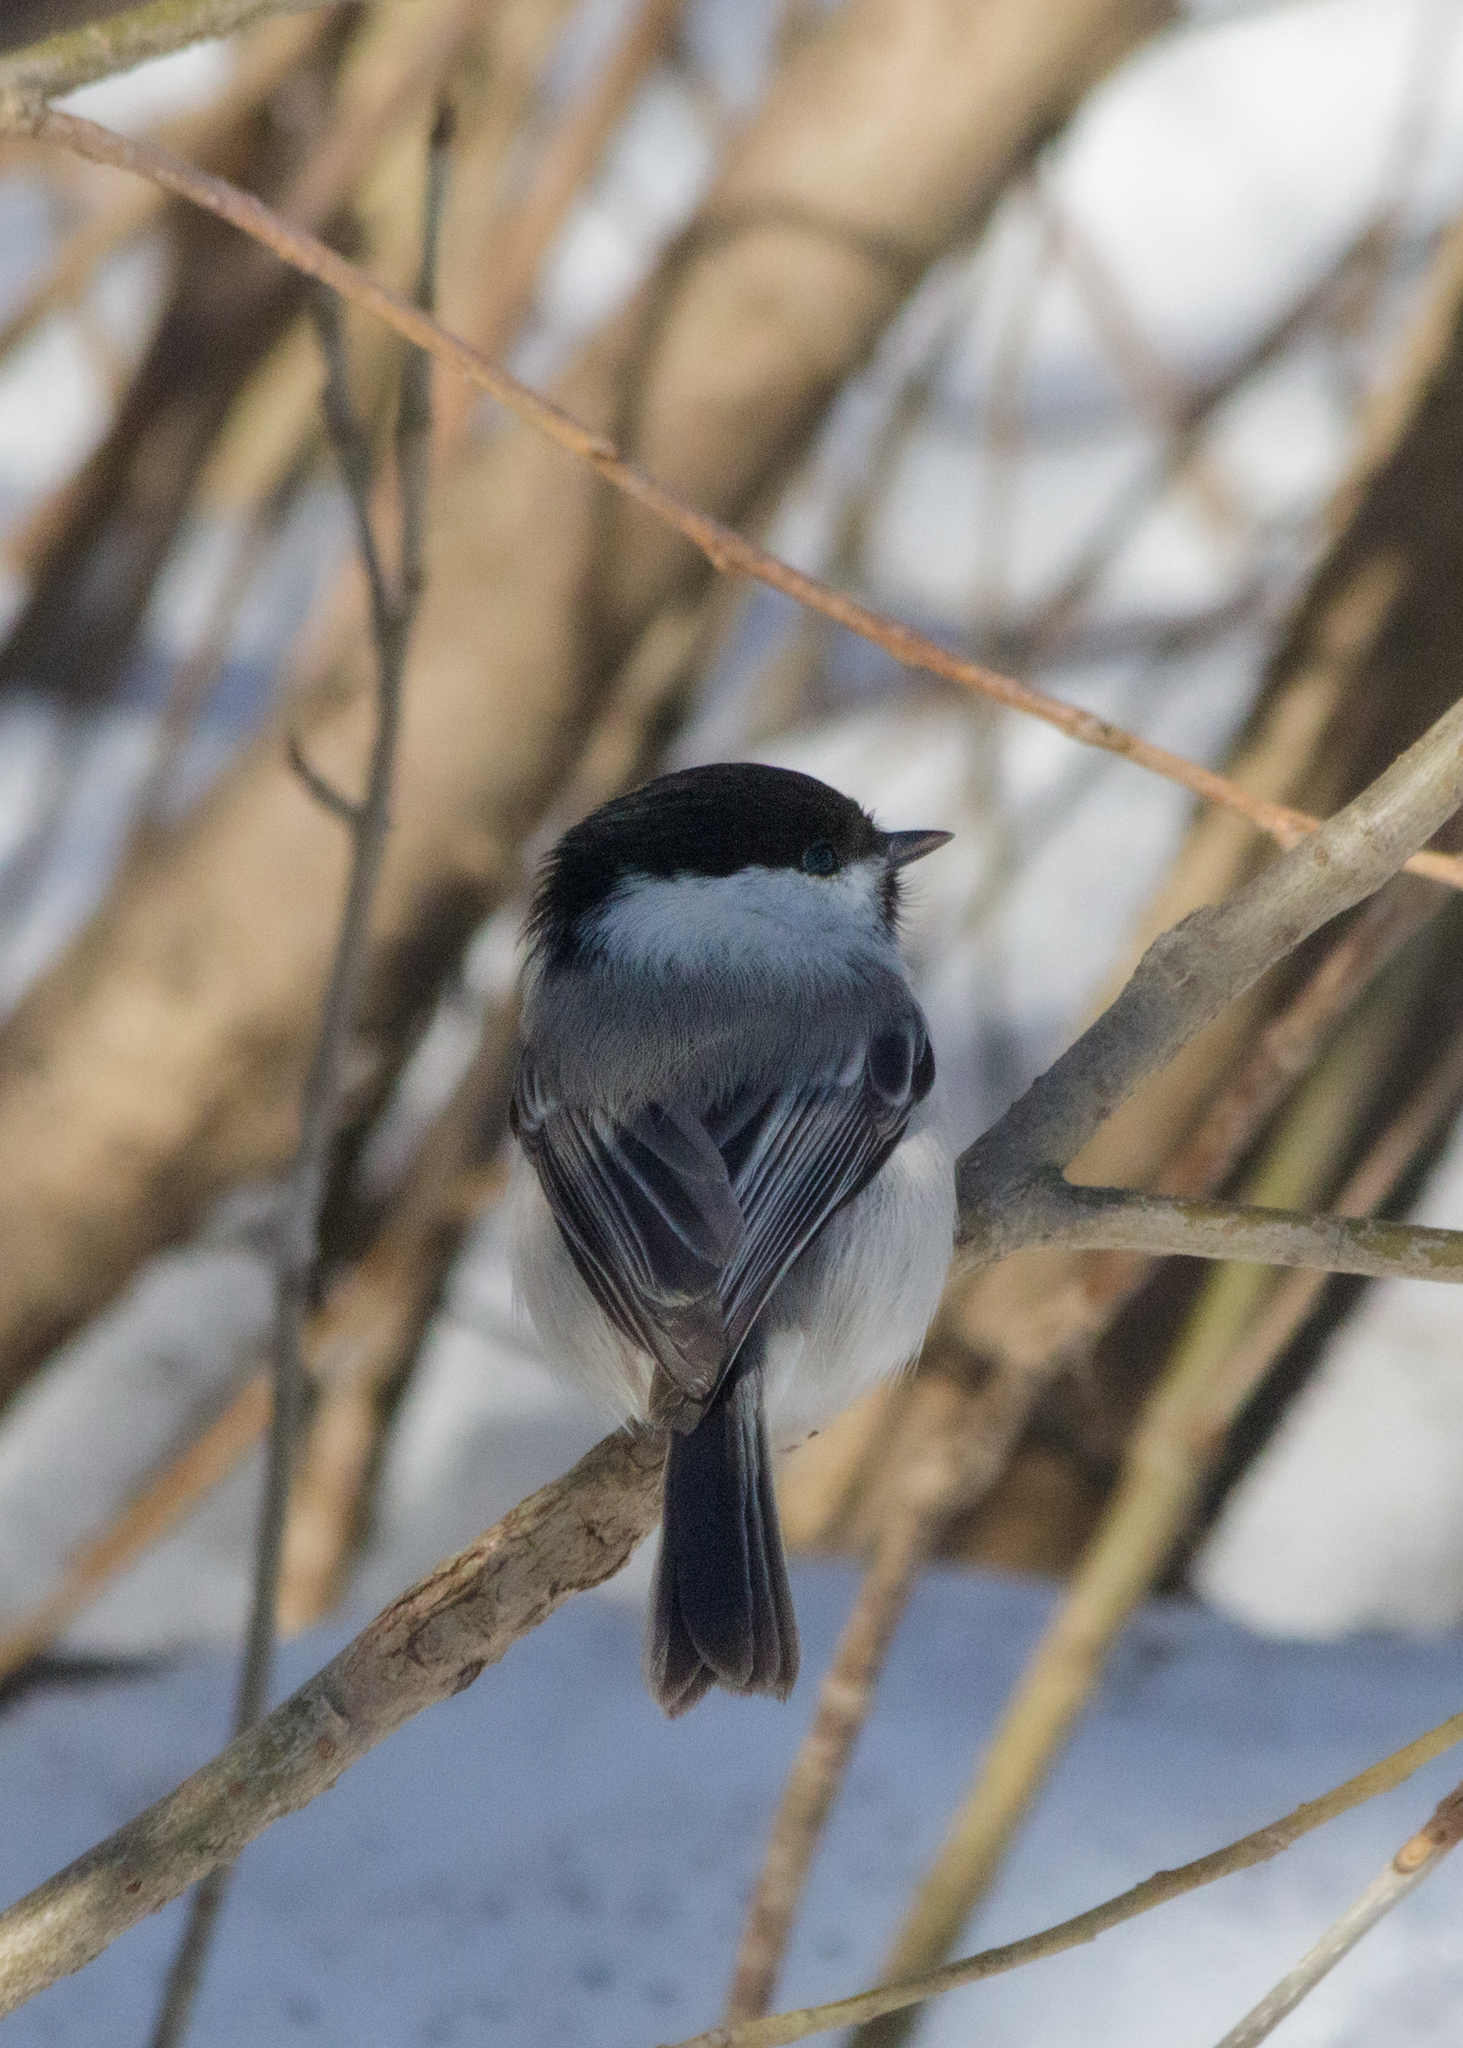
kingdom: Animalia
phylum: Chordata
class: Aves
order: Passeriformes
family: Paridae
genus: Poecile
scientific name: Poecile montanus
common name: Willow tit
